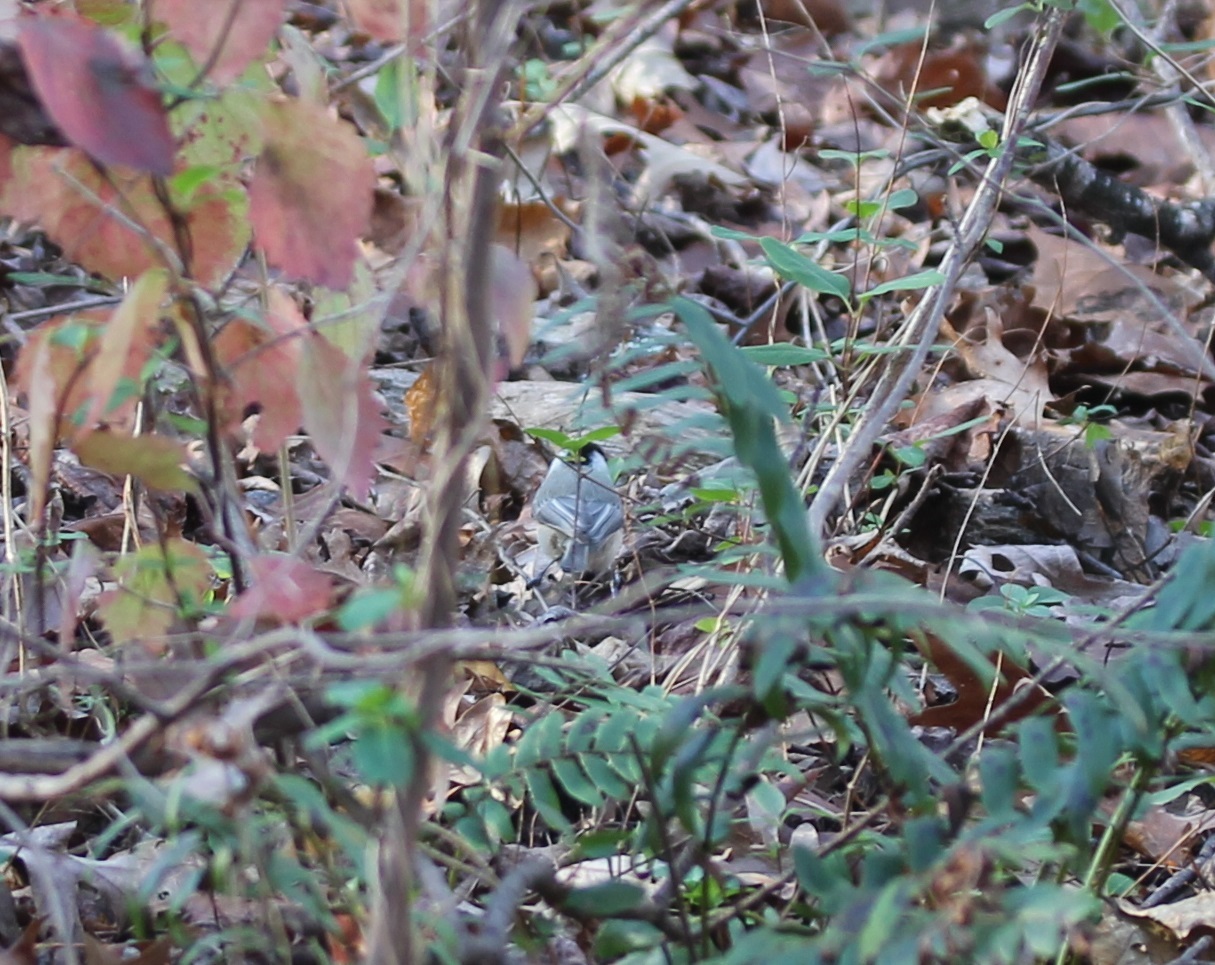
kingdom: Animalia
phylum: Chordata
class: Aves
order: Passeriformes
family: Paridae
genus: Poecile
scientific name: Poecile carolinensis
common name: Carolina chickadee
